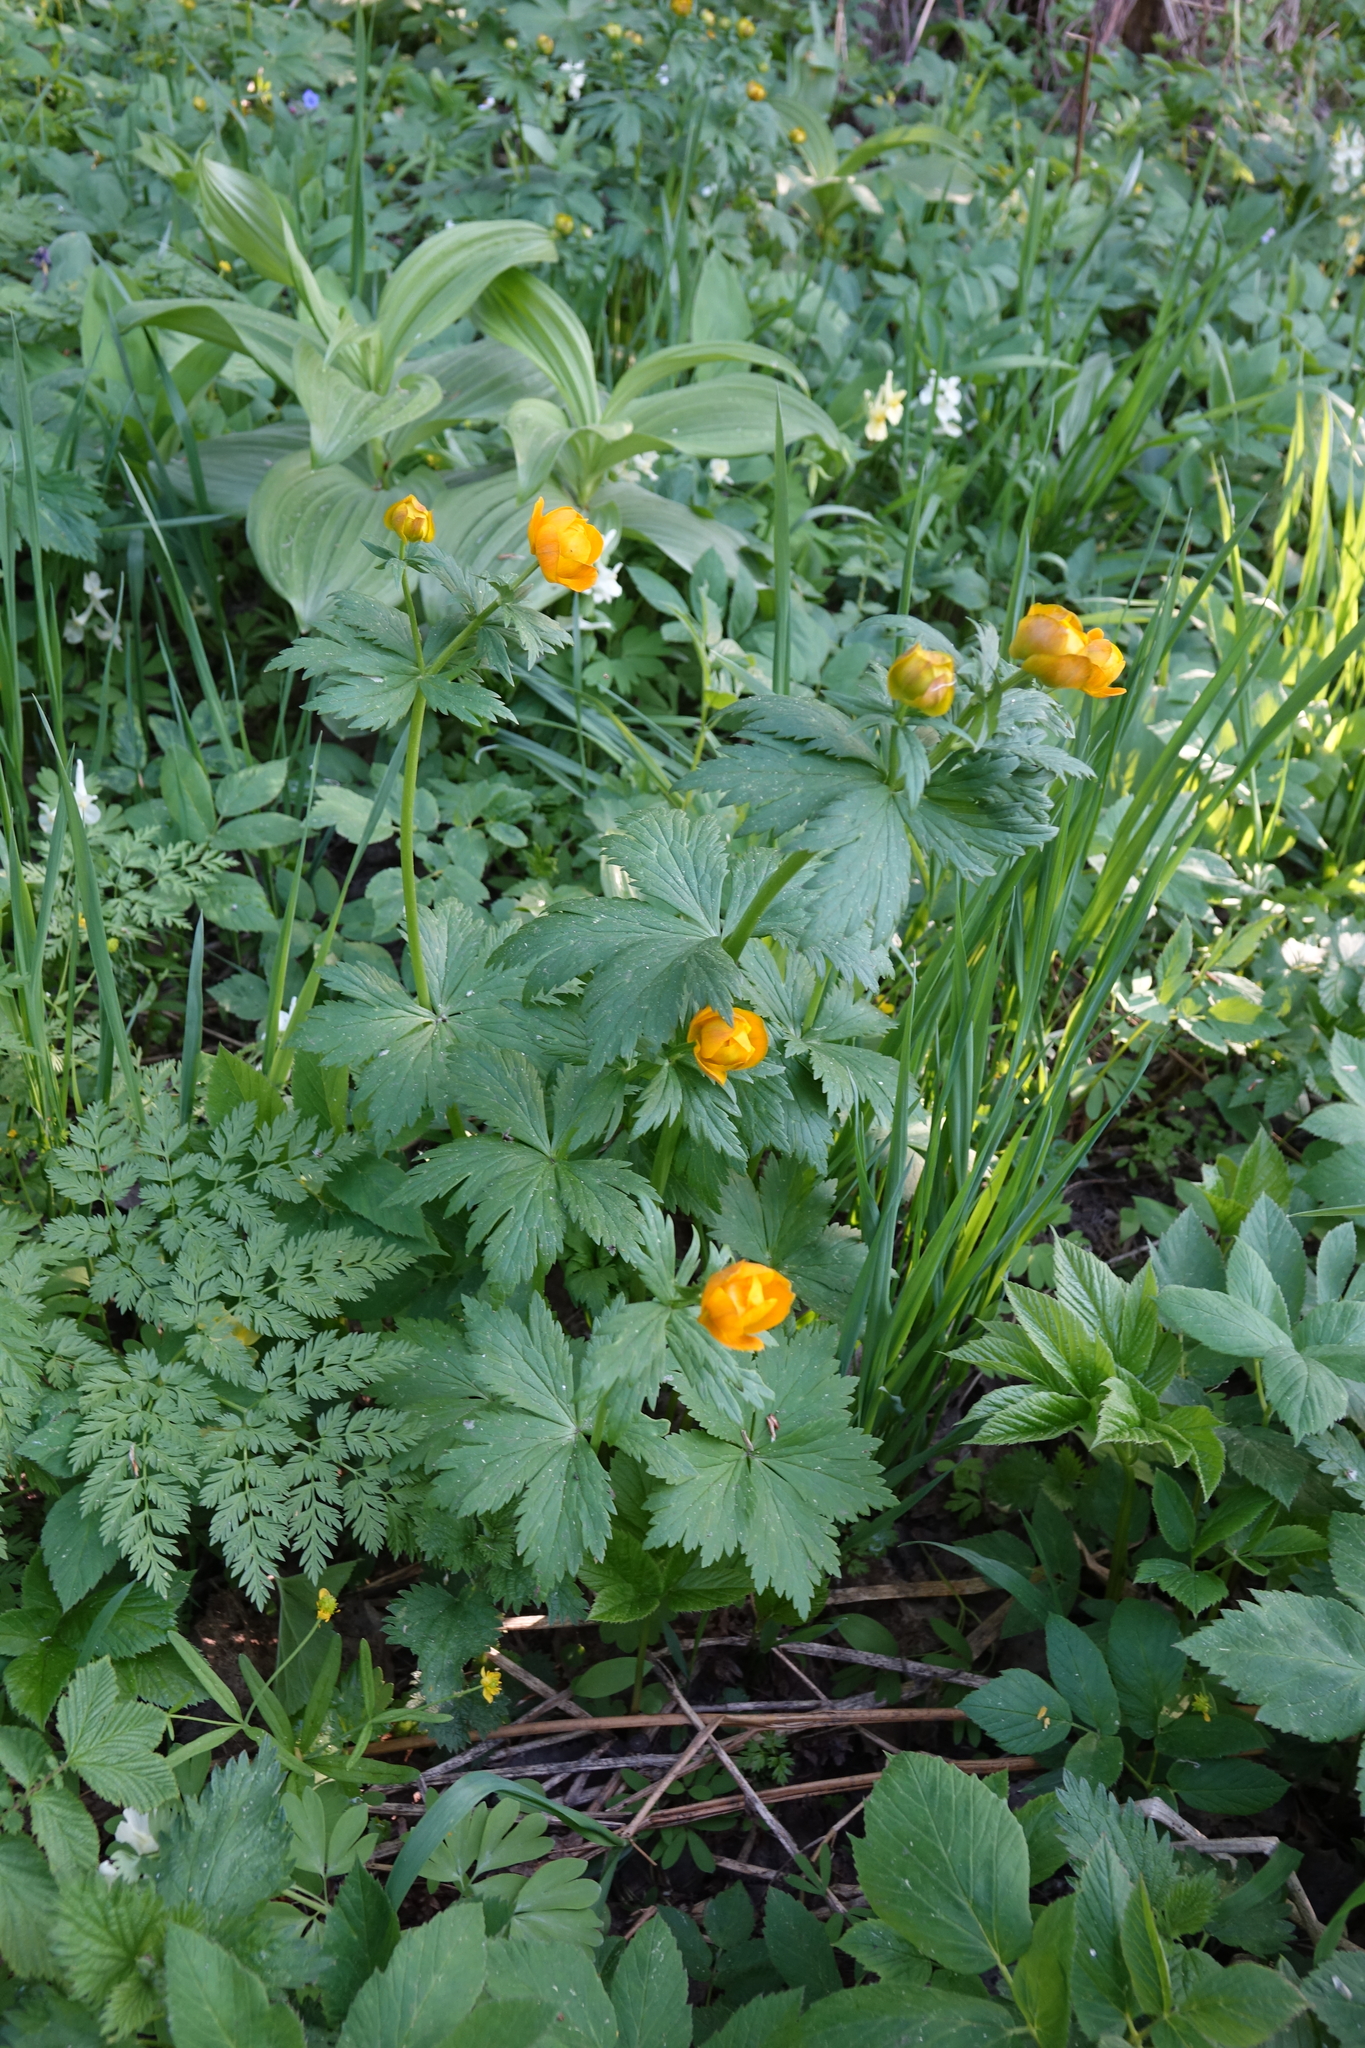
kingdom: Plantae
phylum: Tracheophyta
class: Magnoliopsida
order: Ranunculales
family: Ranunculaceae
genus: Trollius
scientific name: Trollius asiaticus
